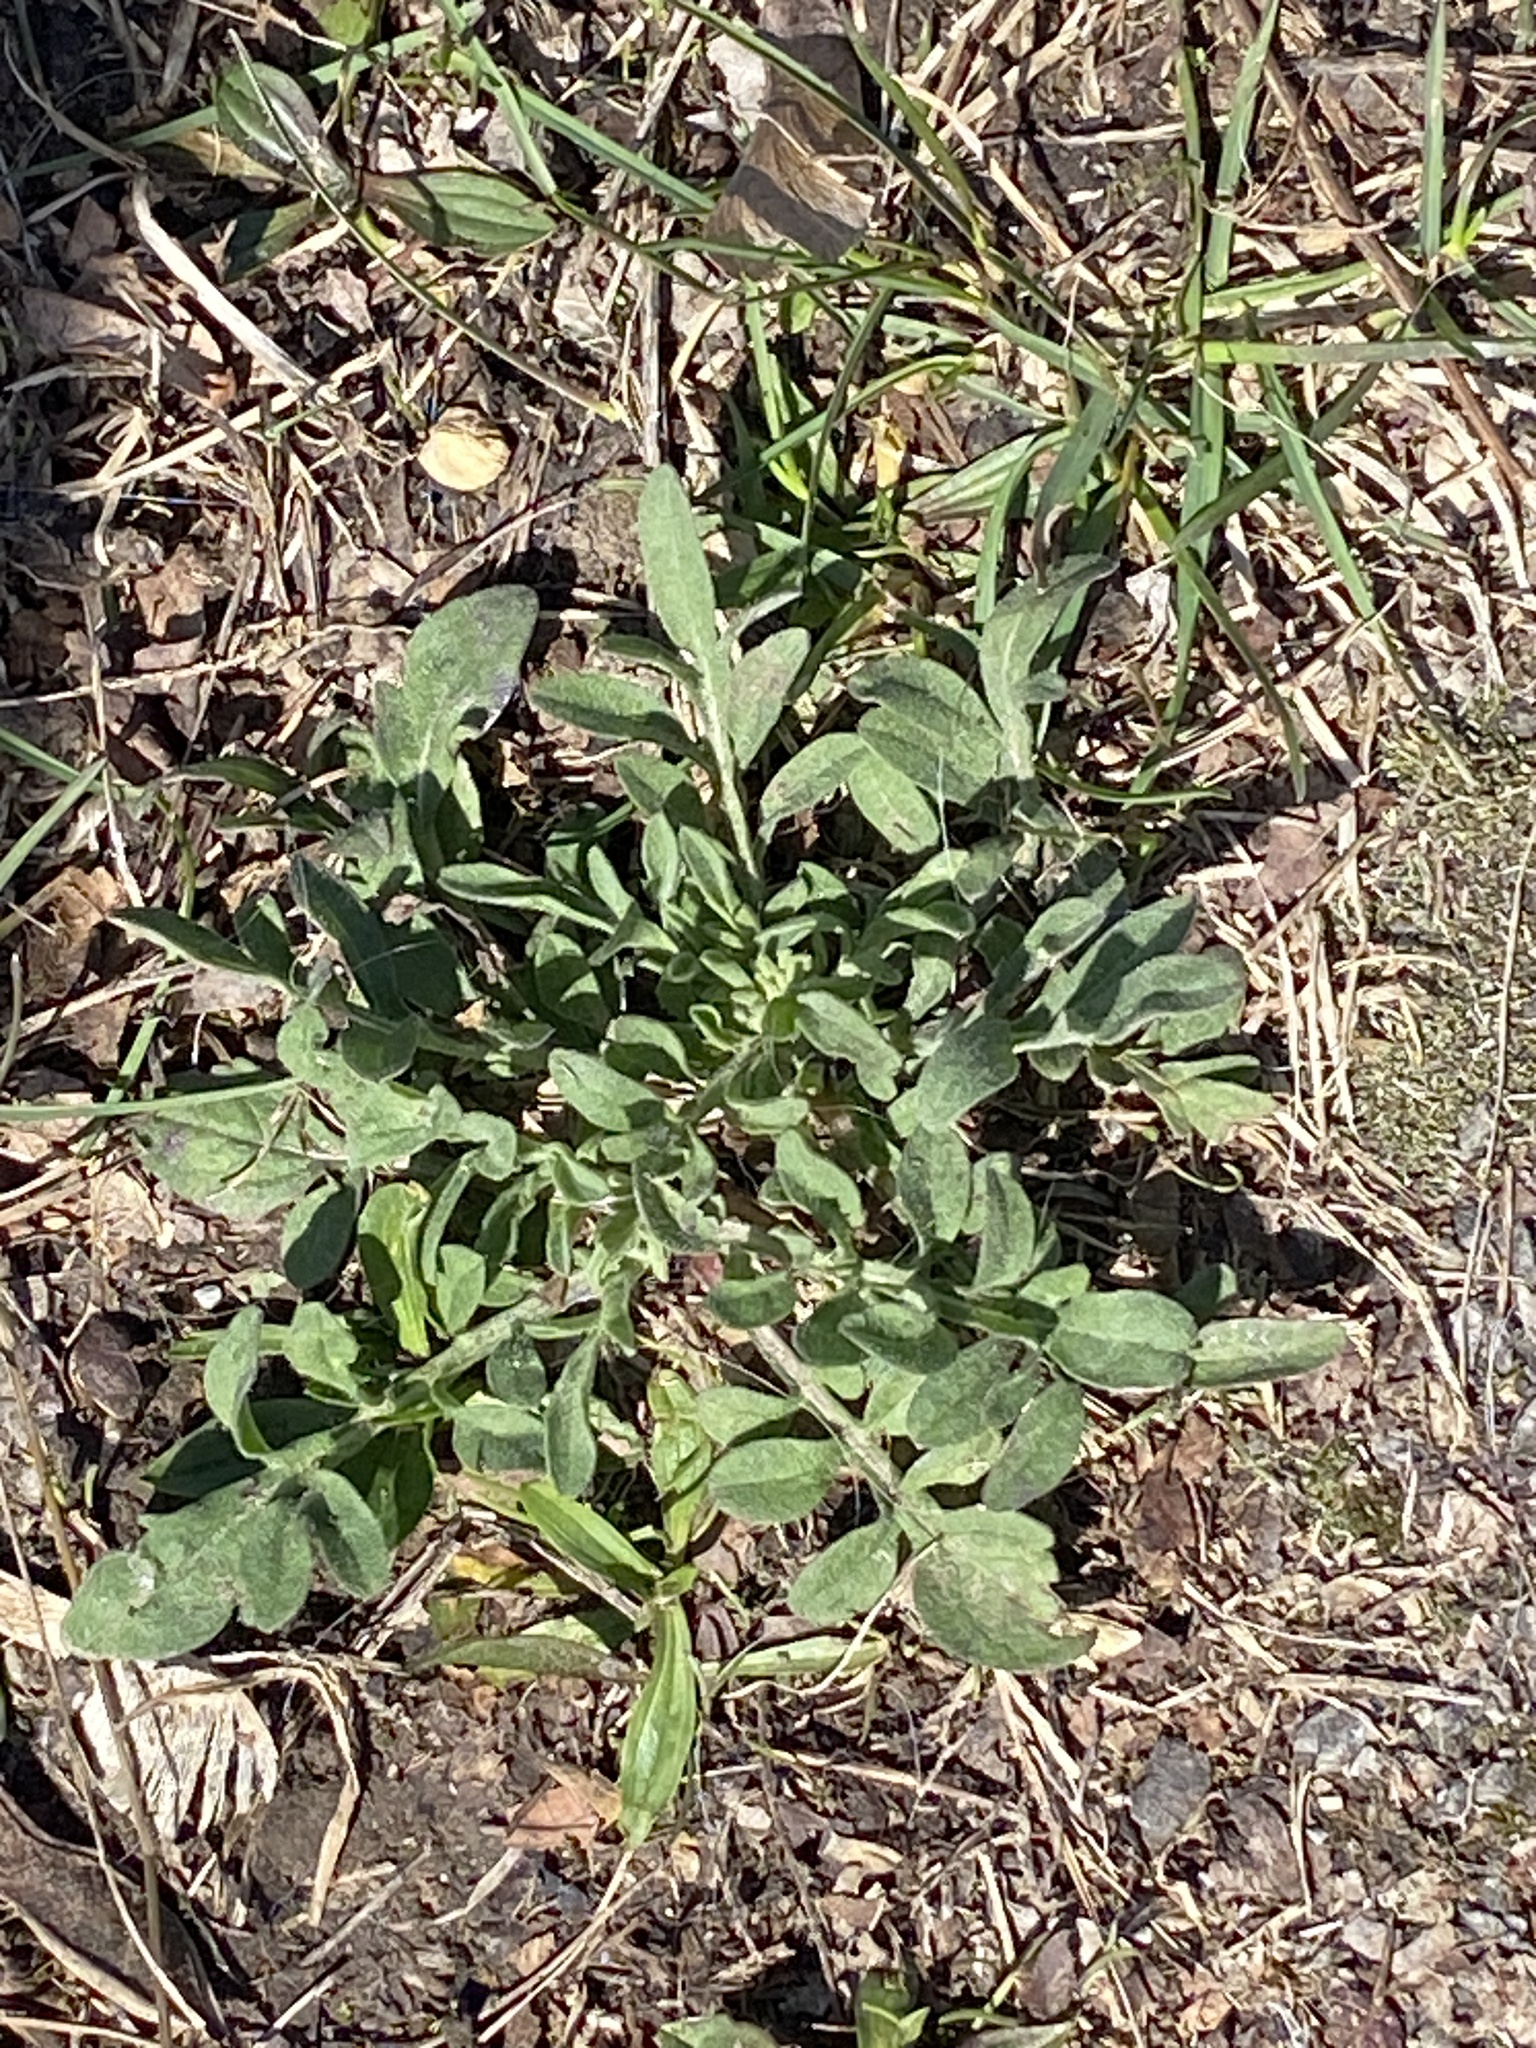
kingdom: Plantae
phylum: Tracheophyta
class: Magnoliopsida
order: Asterales
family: Asteraceae
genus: Centaurea
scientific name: Centaurea stoebe
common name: Spotted knapweed
